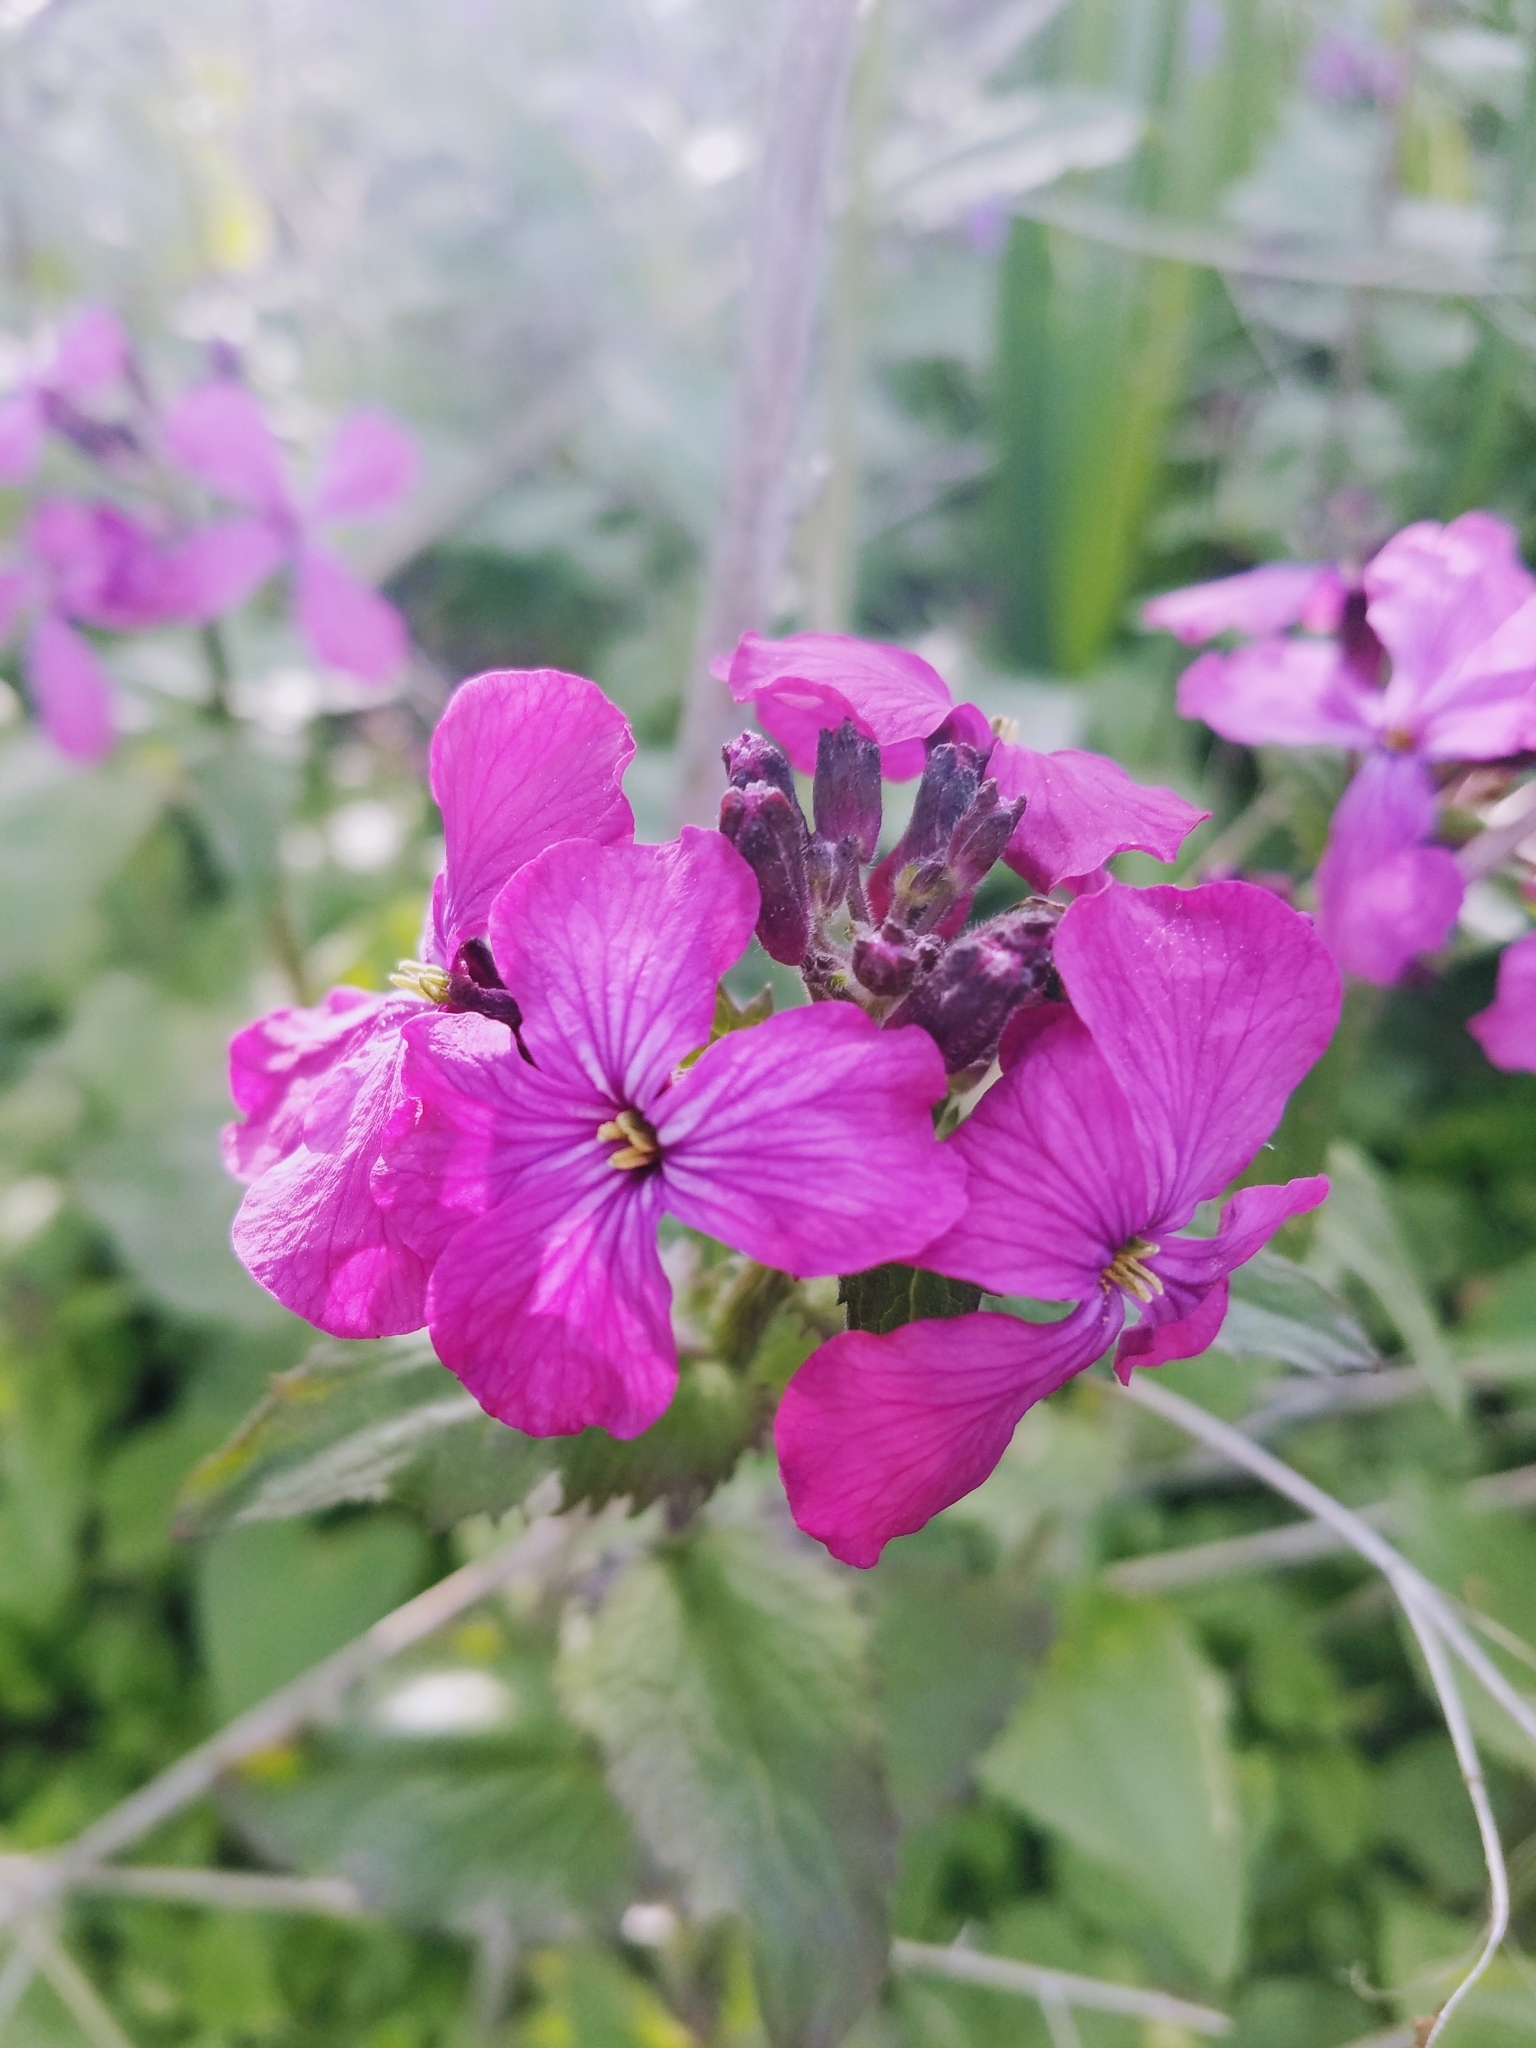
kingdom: Plantae
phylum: Tracheophyta
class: Magnoliopsida
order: Brassicales
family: Brassicaceae
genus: Lunaria
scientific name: Lunaria annua
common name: Honesty
